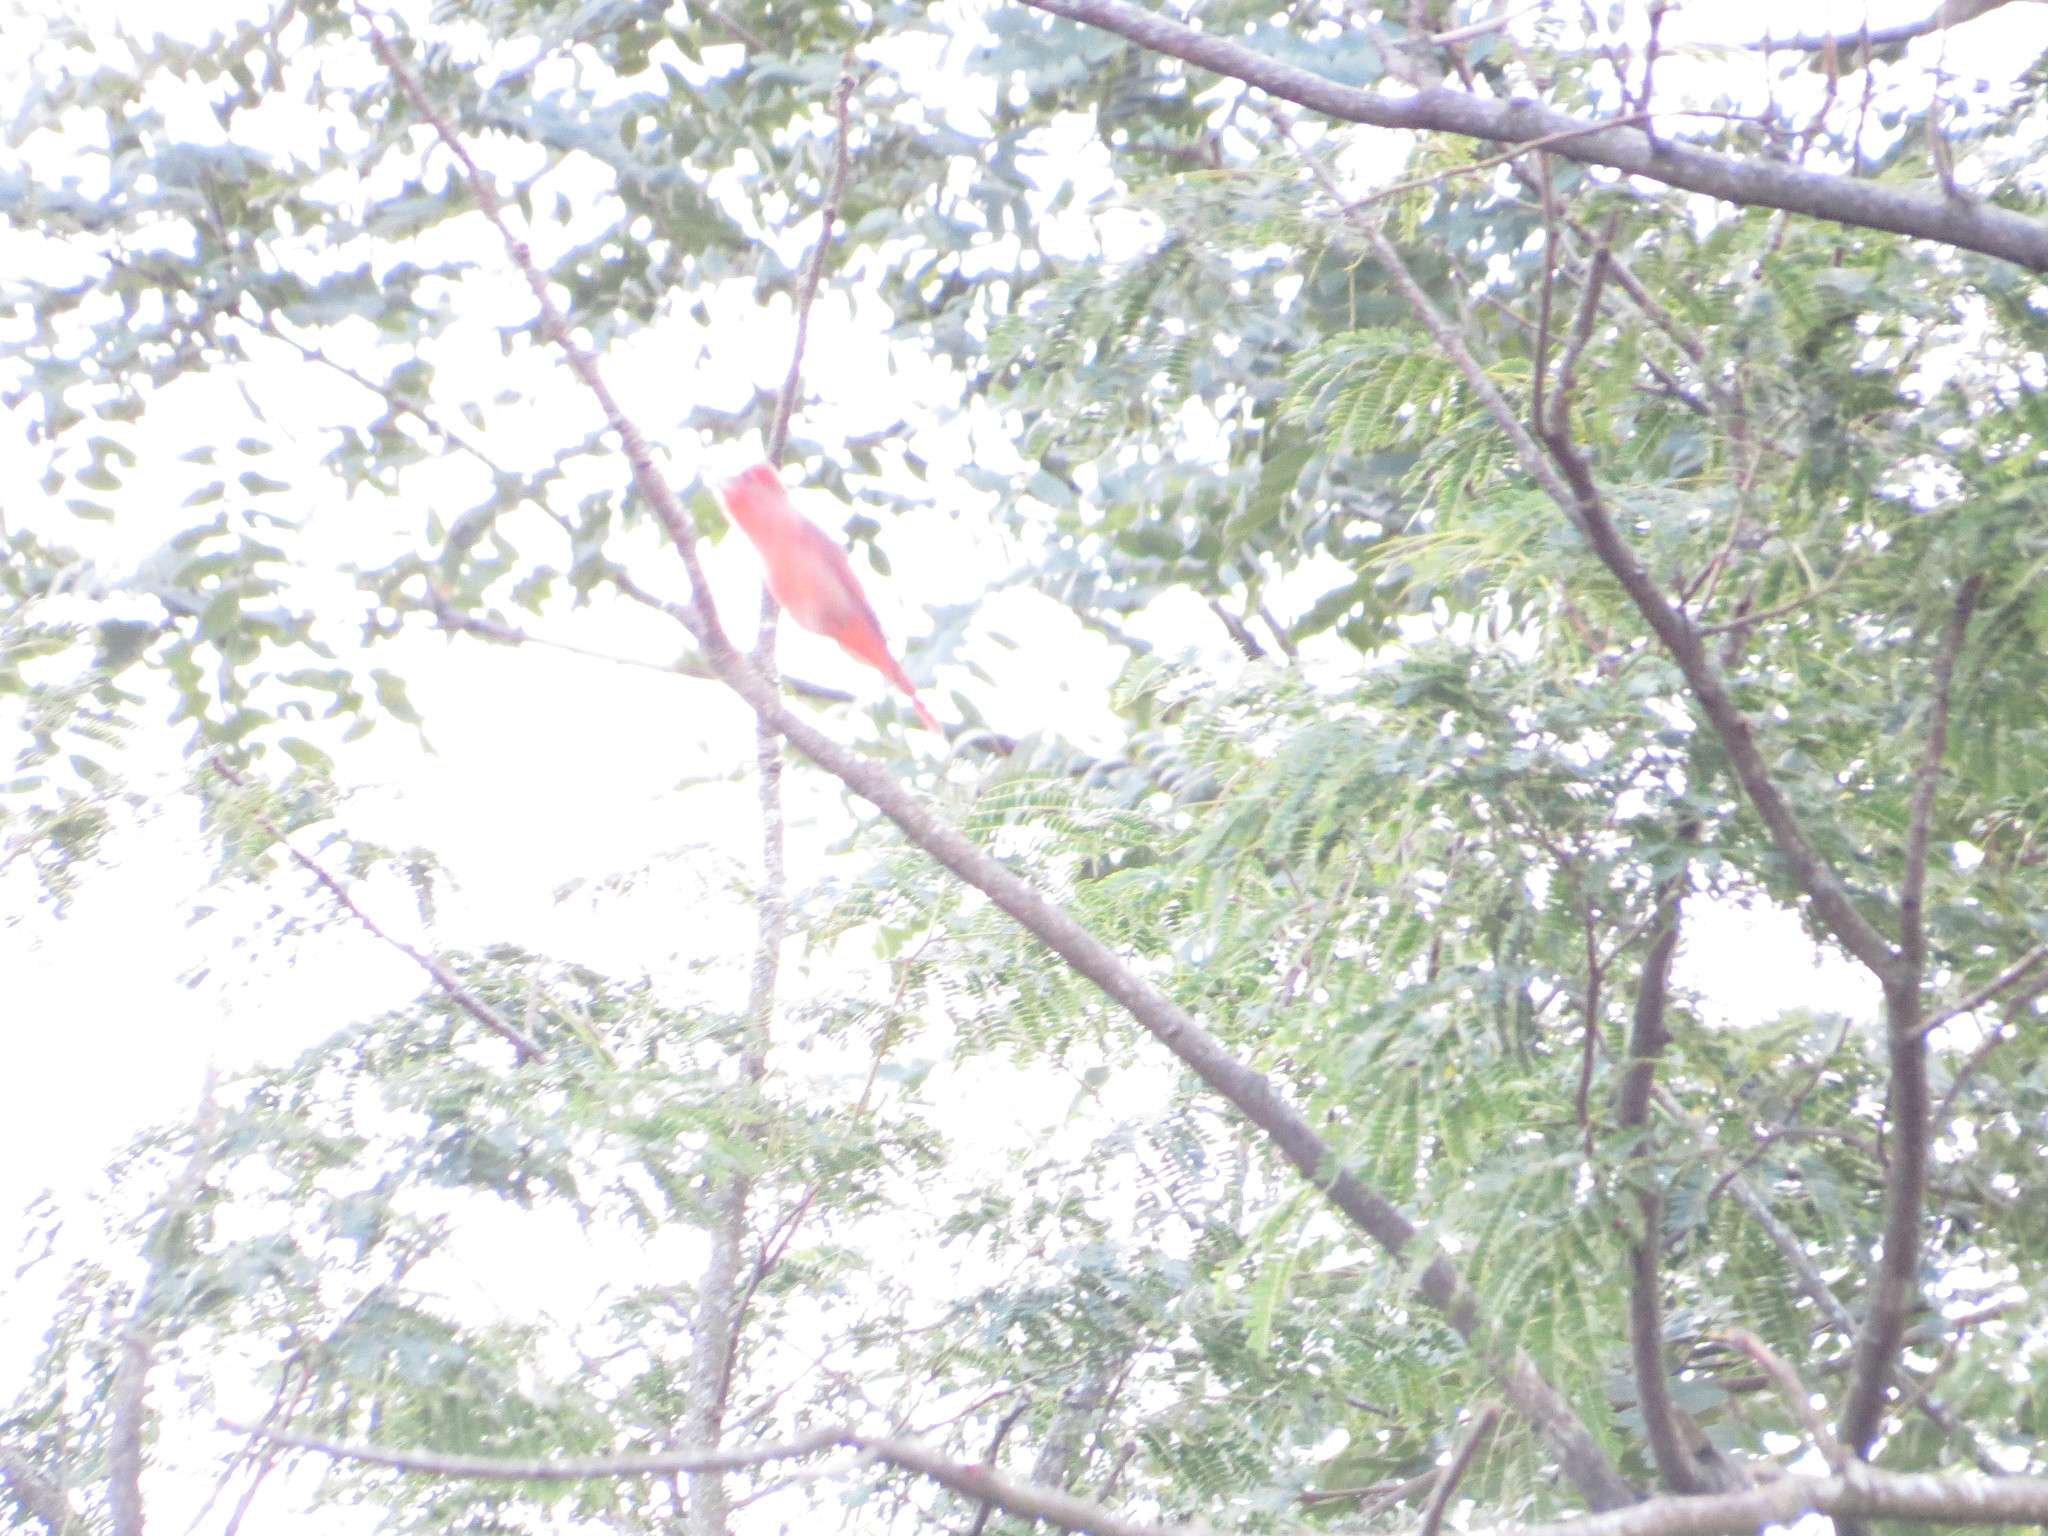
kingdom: Animalia
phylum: Chordata
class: Aves
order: Passeriformes
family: Cardinalidae
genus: Piranga
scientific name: Piranga flava
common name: Red tanager
